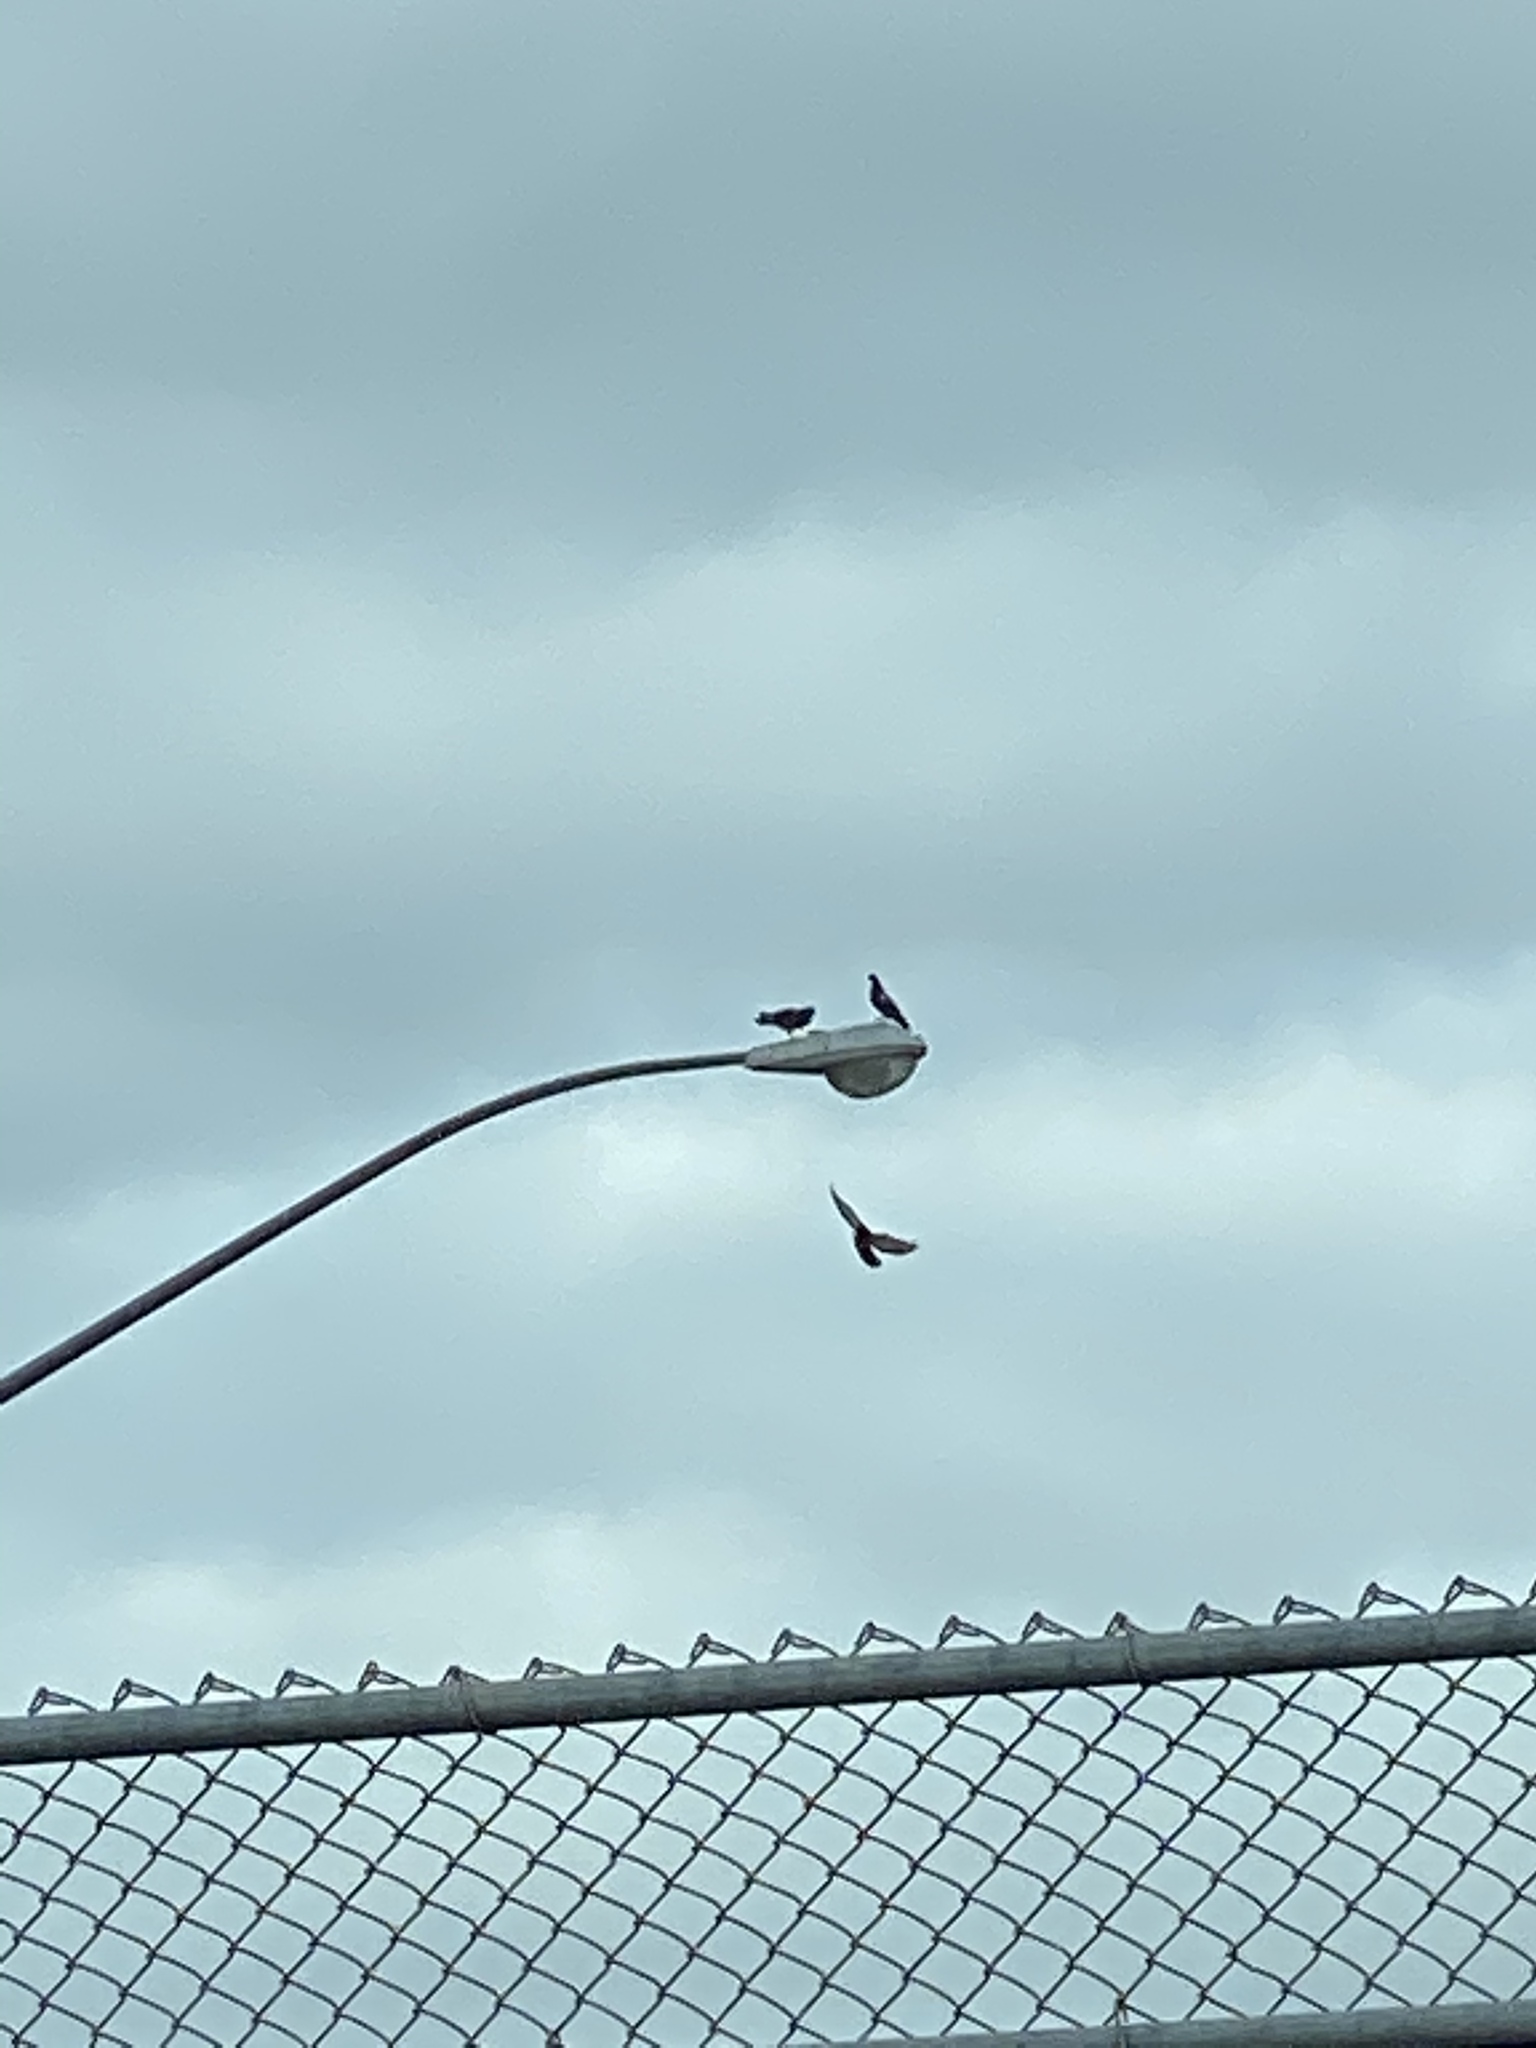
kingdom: Animalia
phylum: Chordata
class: Aves
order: Columbiformes
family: Columbidae
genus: Columba
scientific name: Columba livia
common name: Rock pigeon
